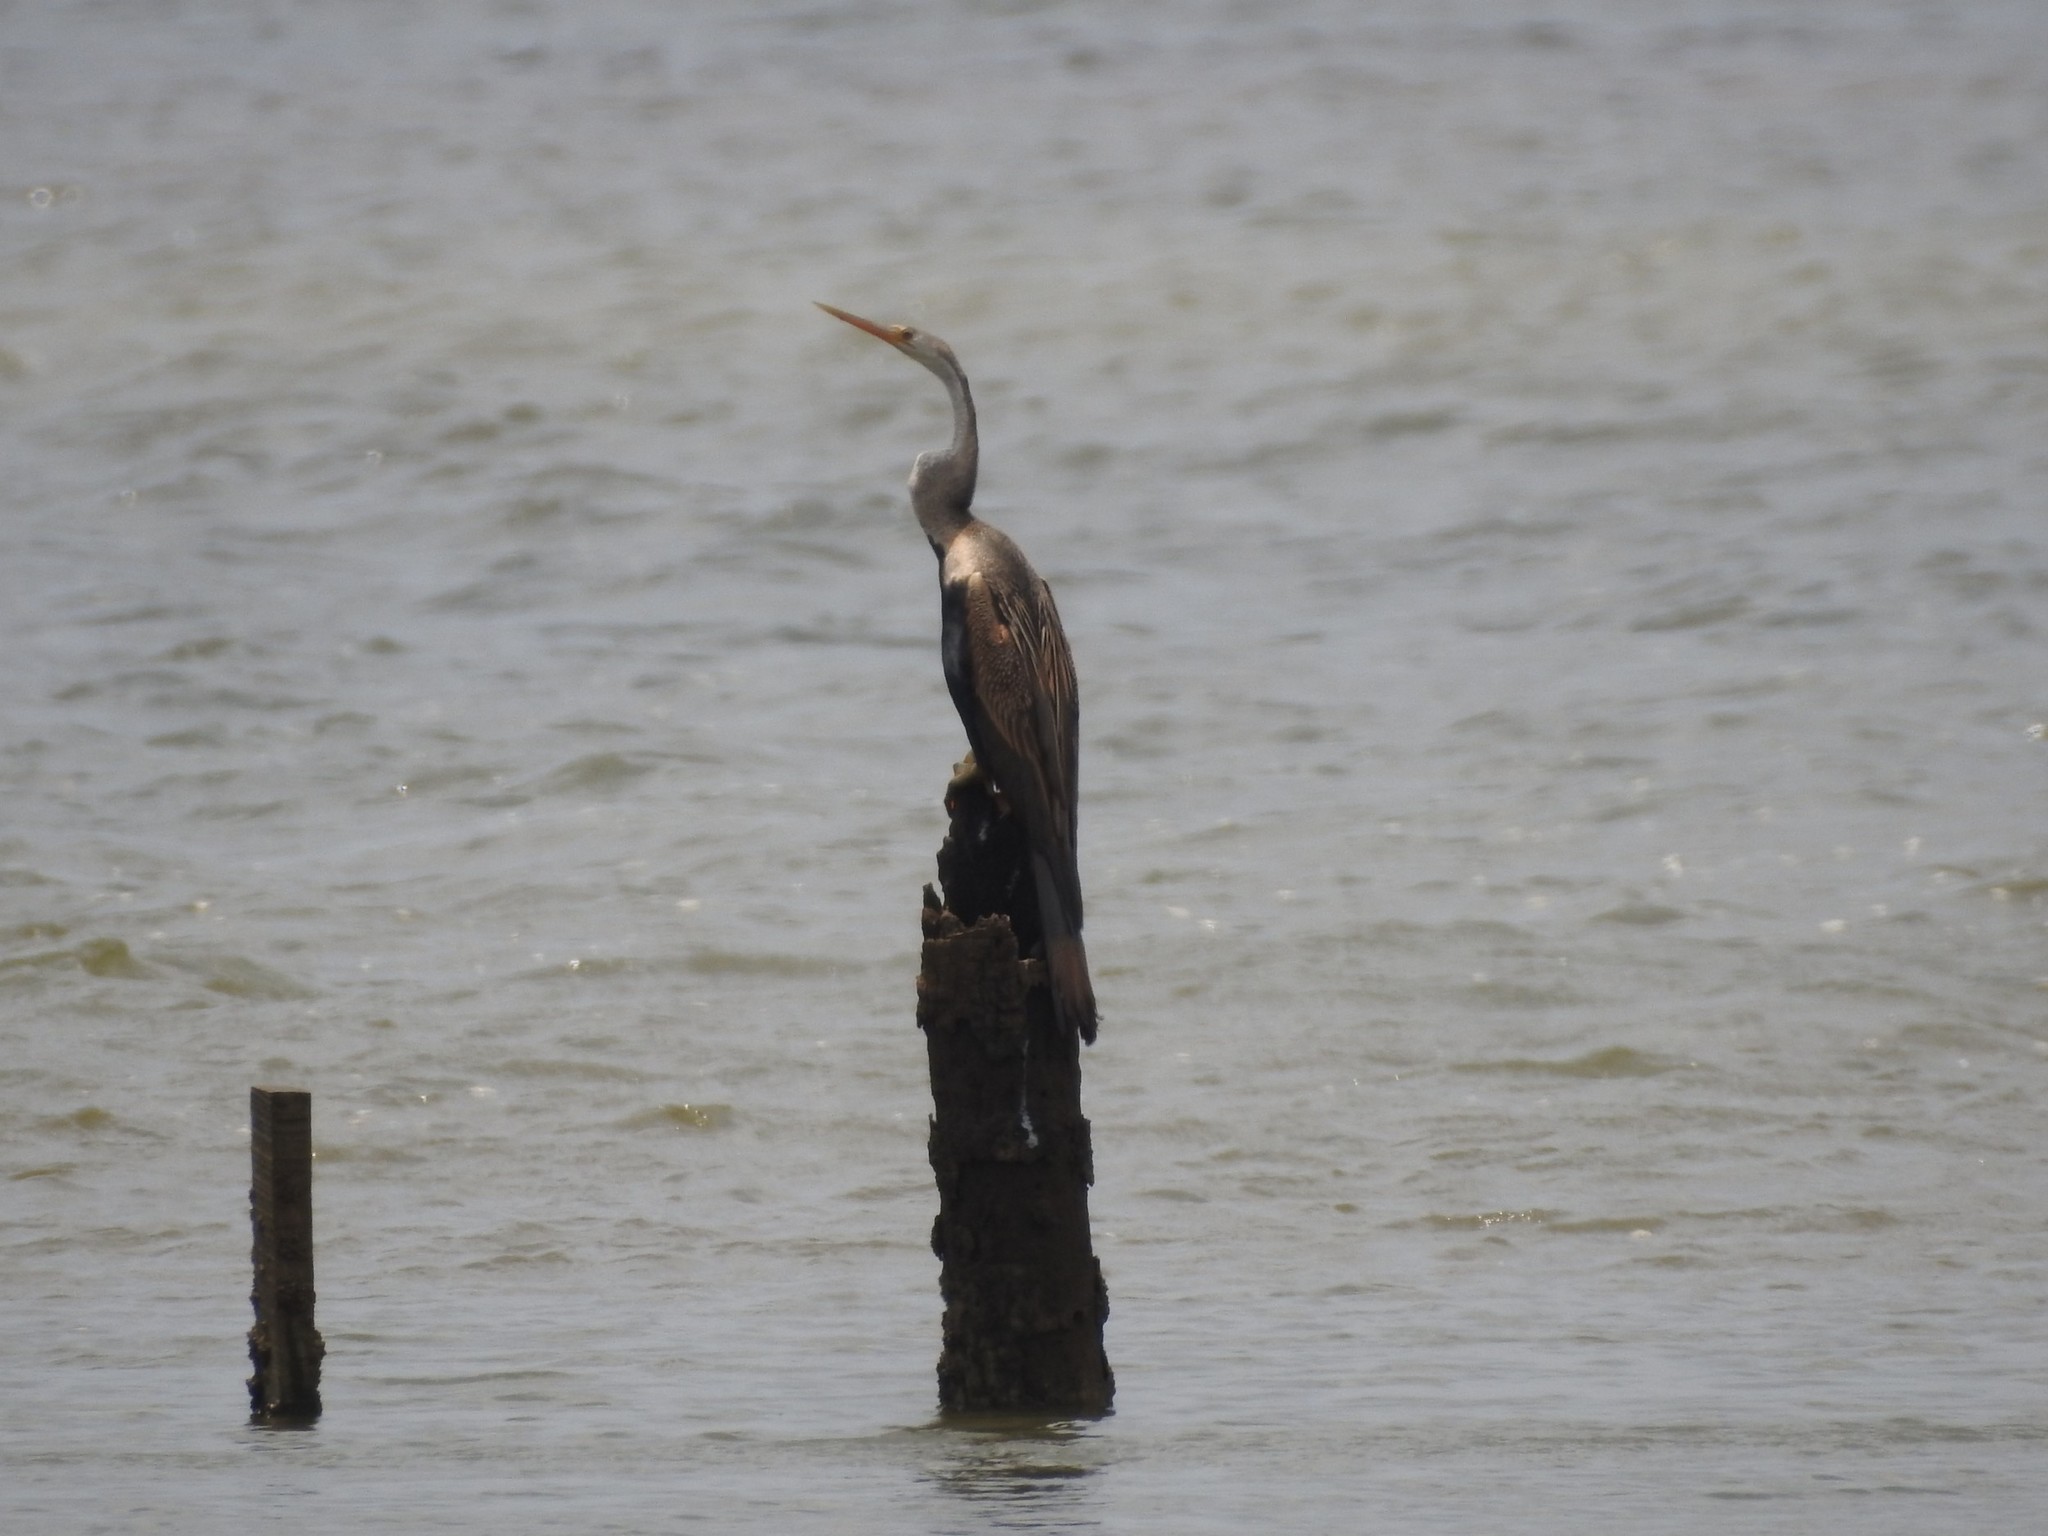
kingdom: Animalia
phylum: Chordata
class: Aves
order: Suliformes
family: Anhingidae
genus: Anhinga
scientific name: Anhinga melanogaster
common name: Oriental darter
